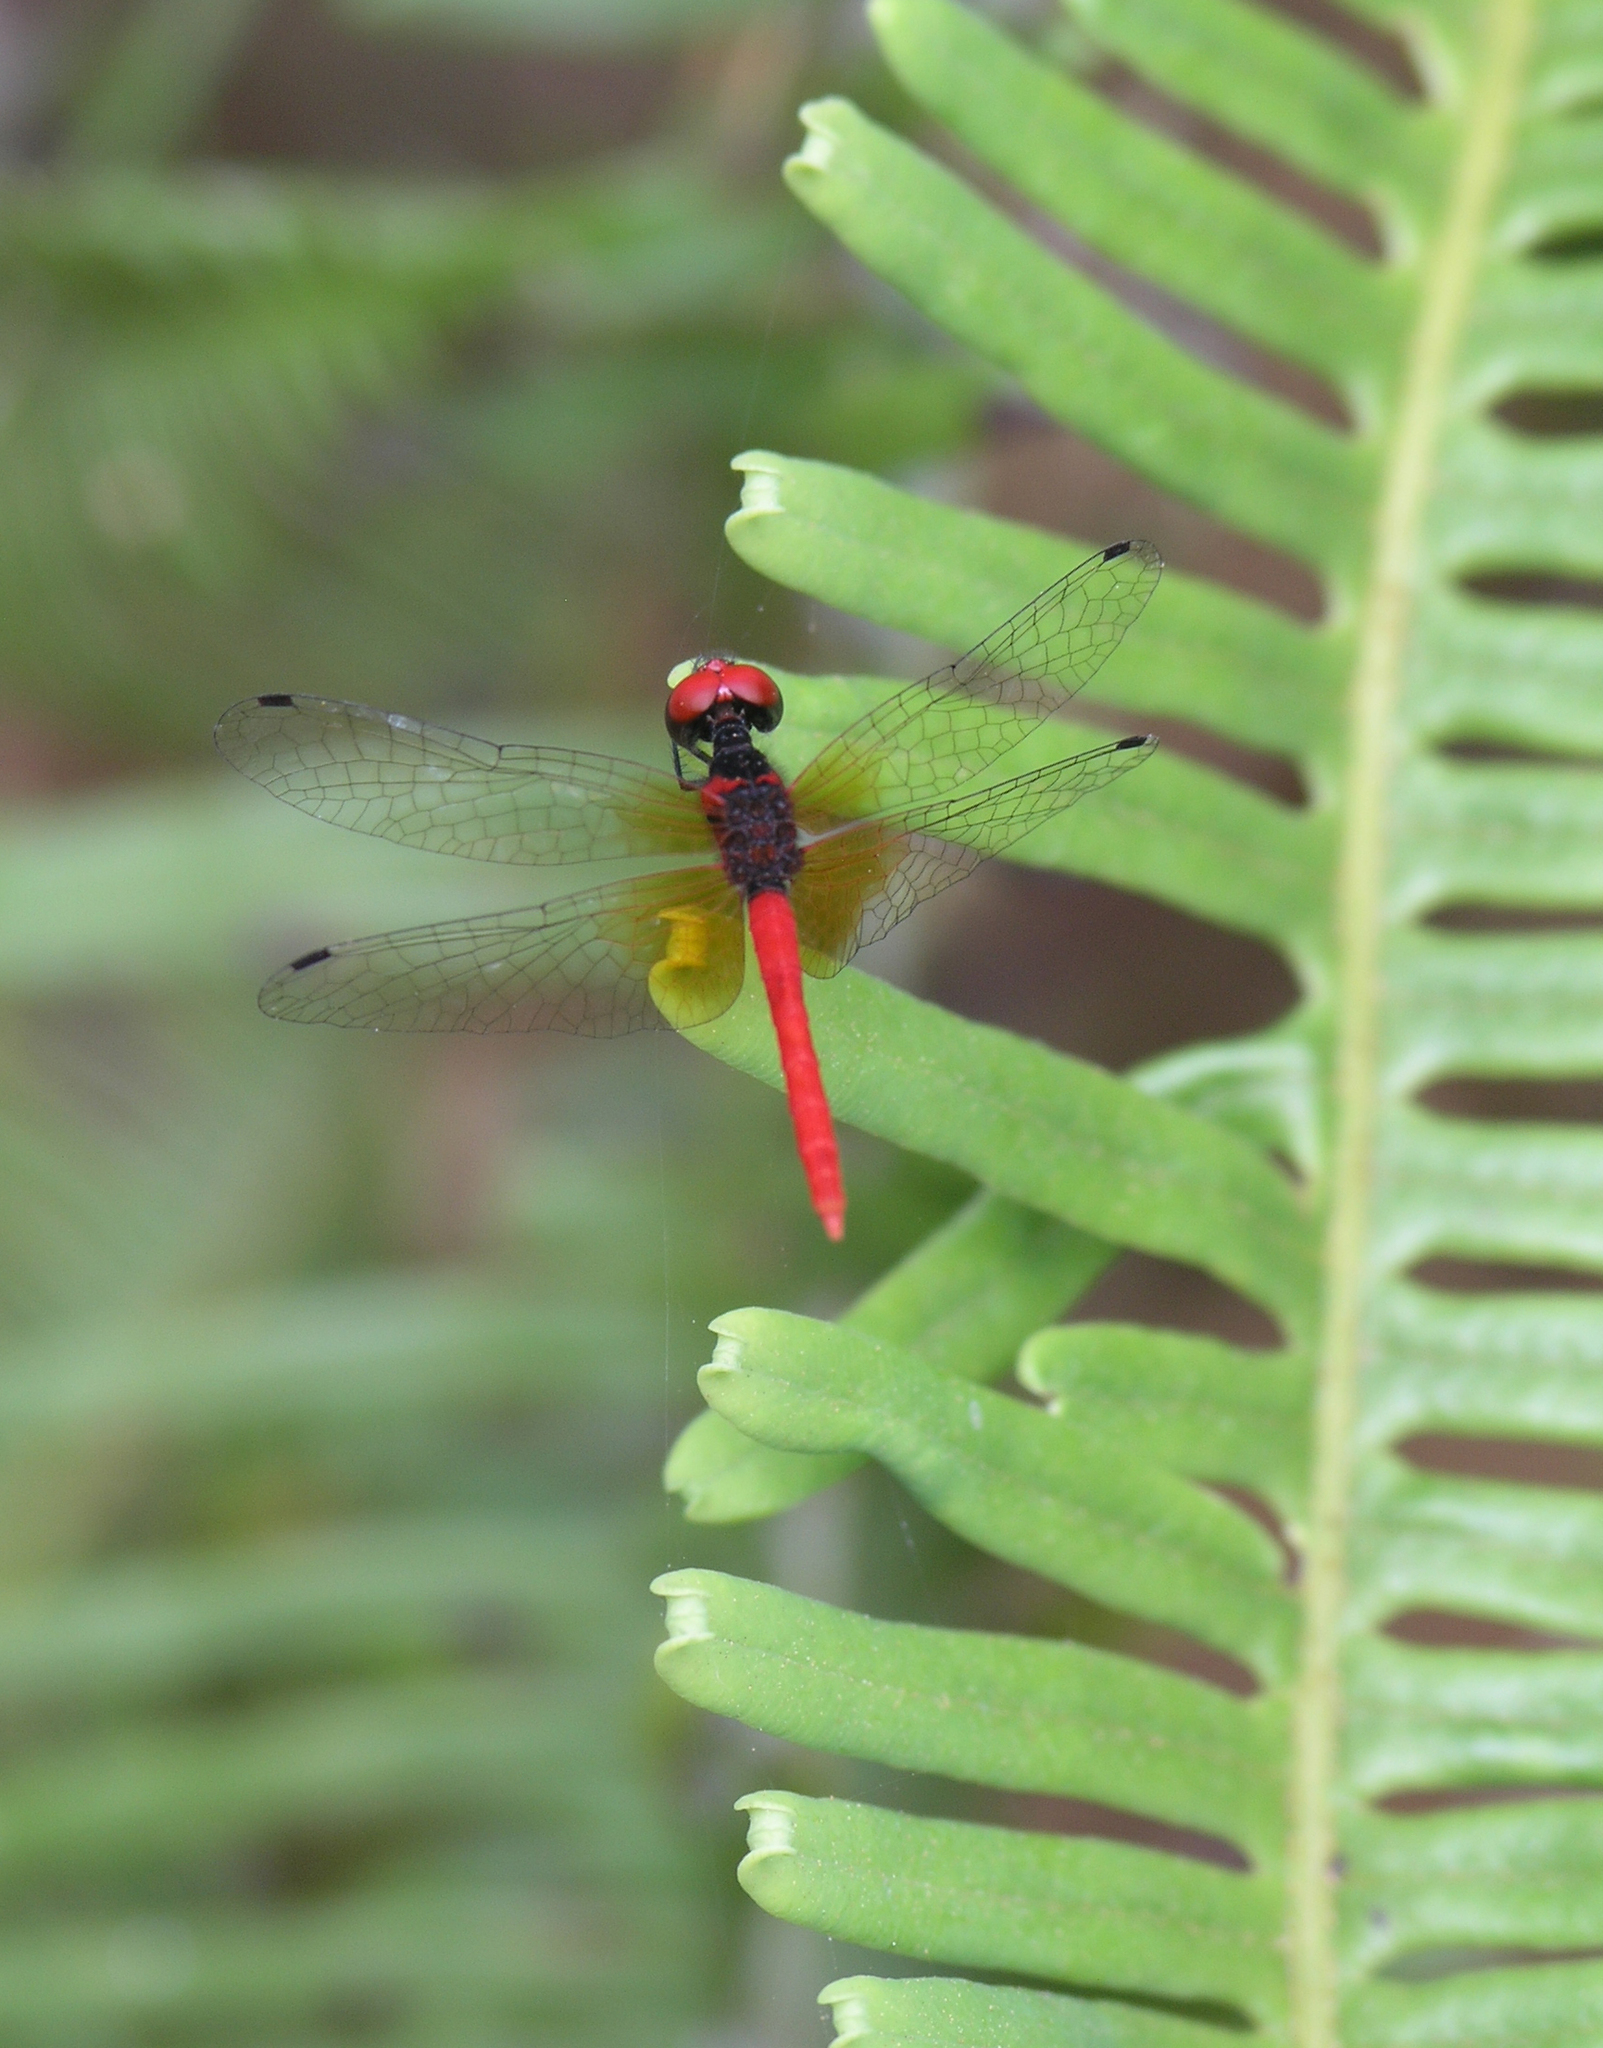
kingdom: Animalia
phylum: Arthropoda
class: Insecta
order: Odonata
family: Libellulidae
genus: Nannophya
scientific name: Nannophya pygmaea
